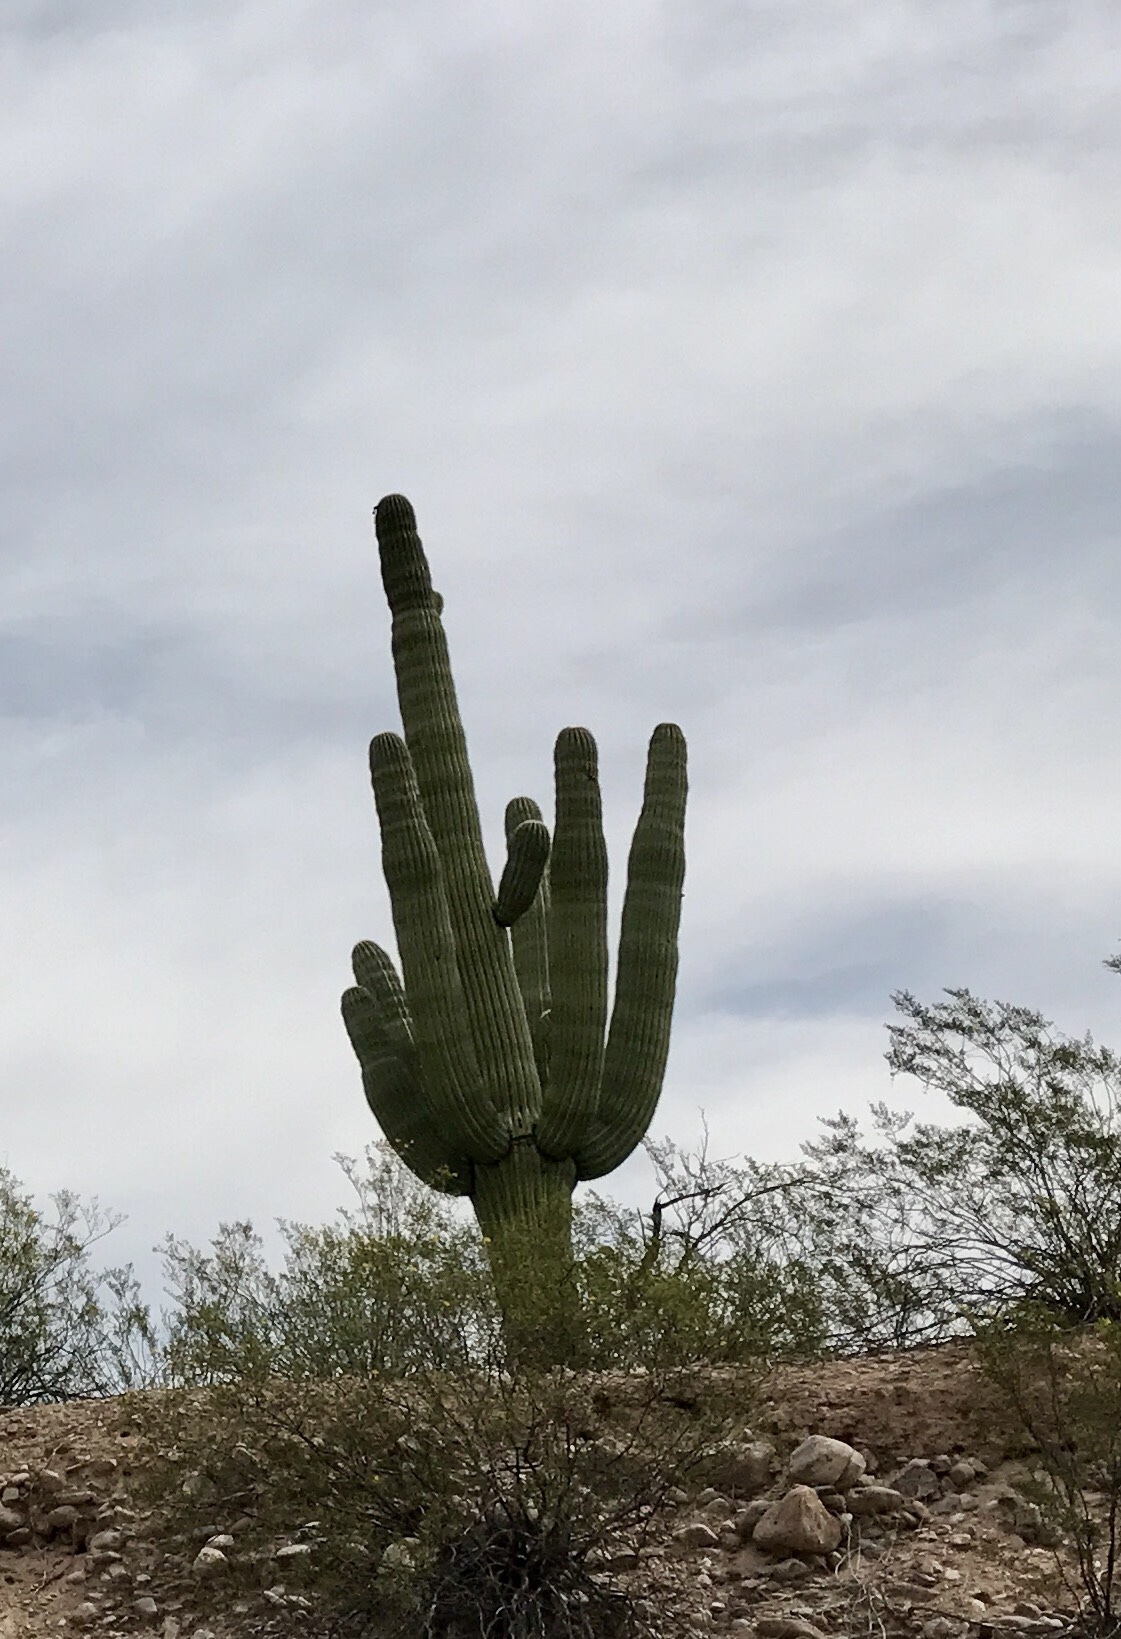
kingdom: Plantae
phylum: Tracheophyta
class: Magnoliopsida
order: Caryophyllales
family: Cactaceae
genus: Carnegiea
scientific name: Carnegiea gigantea
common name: Saguaro
